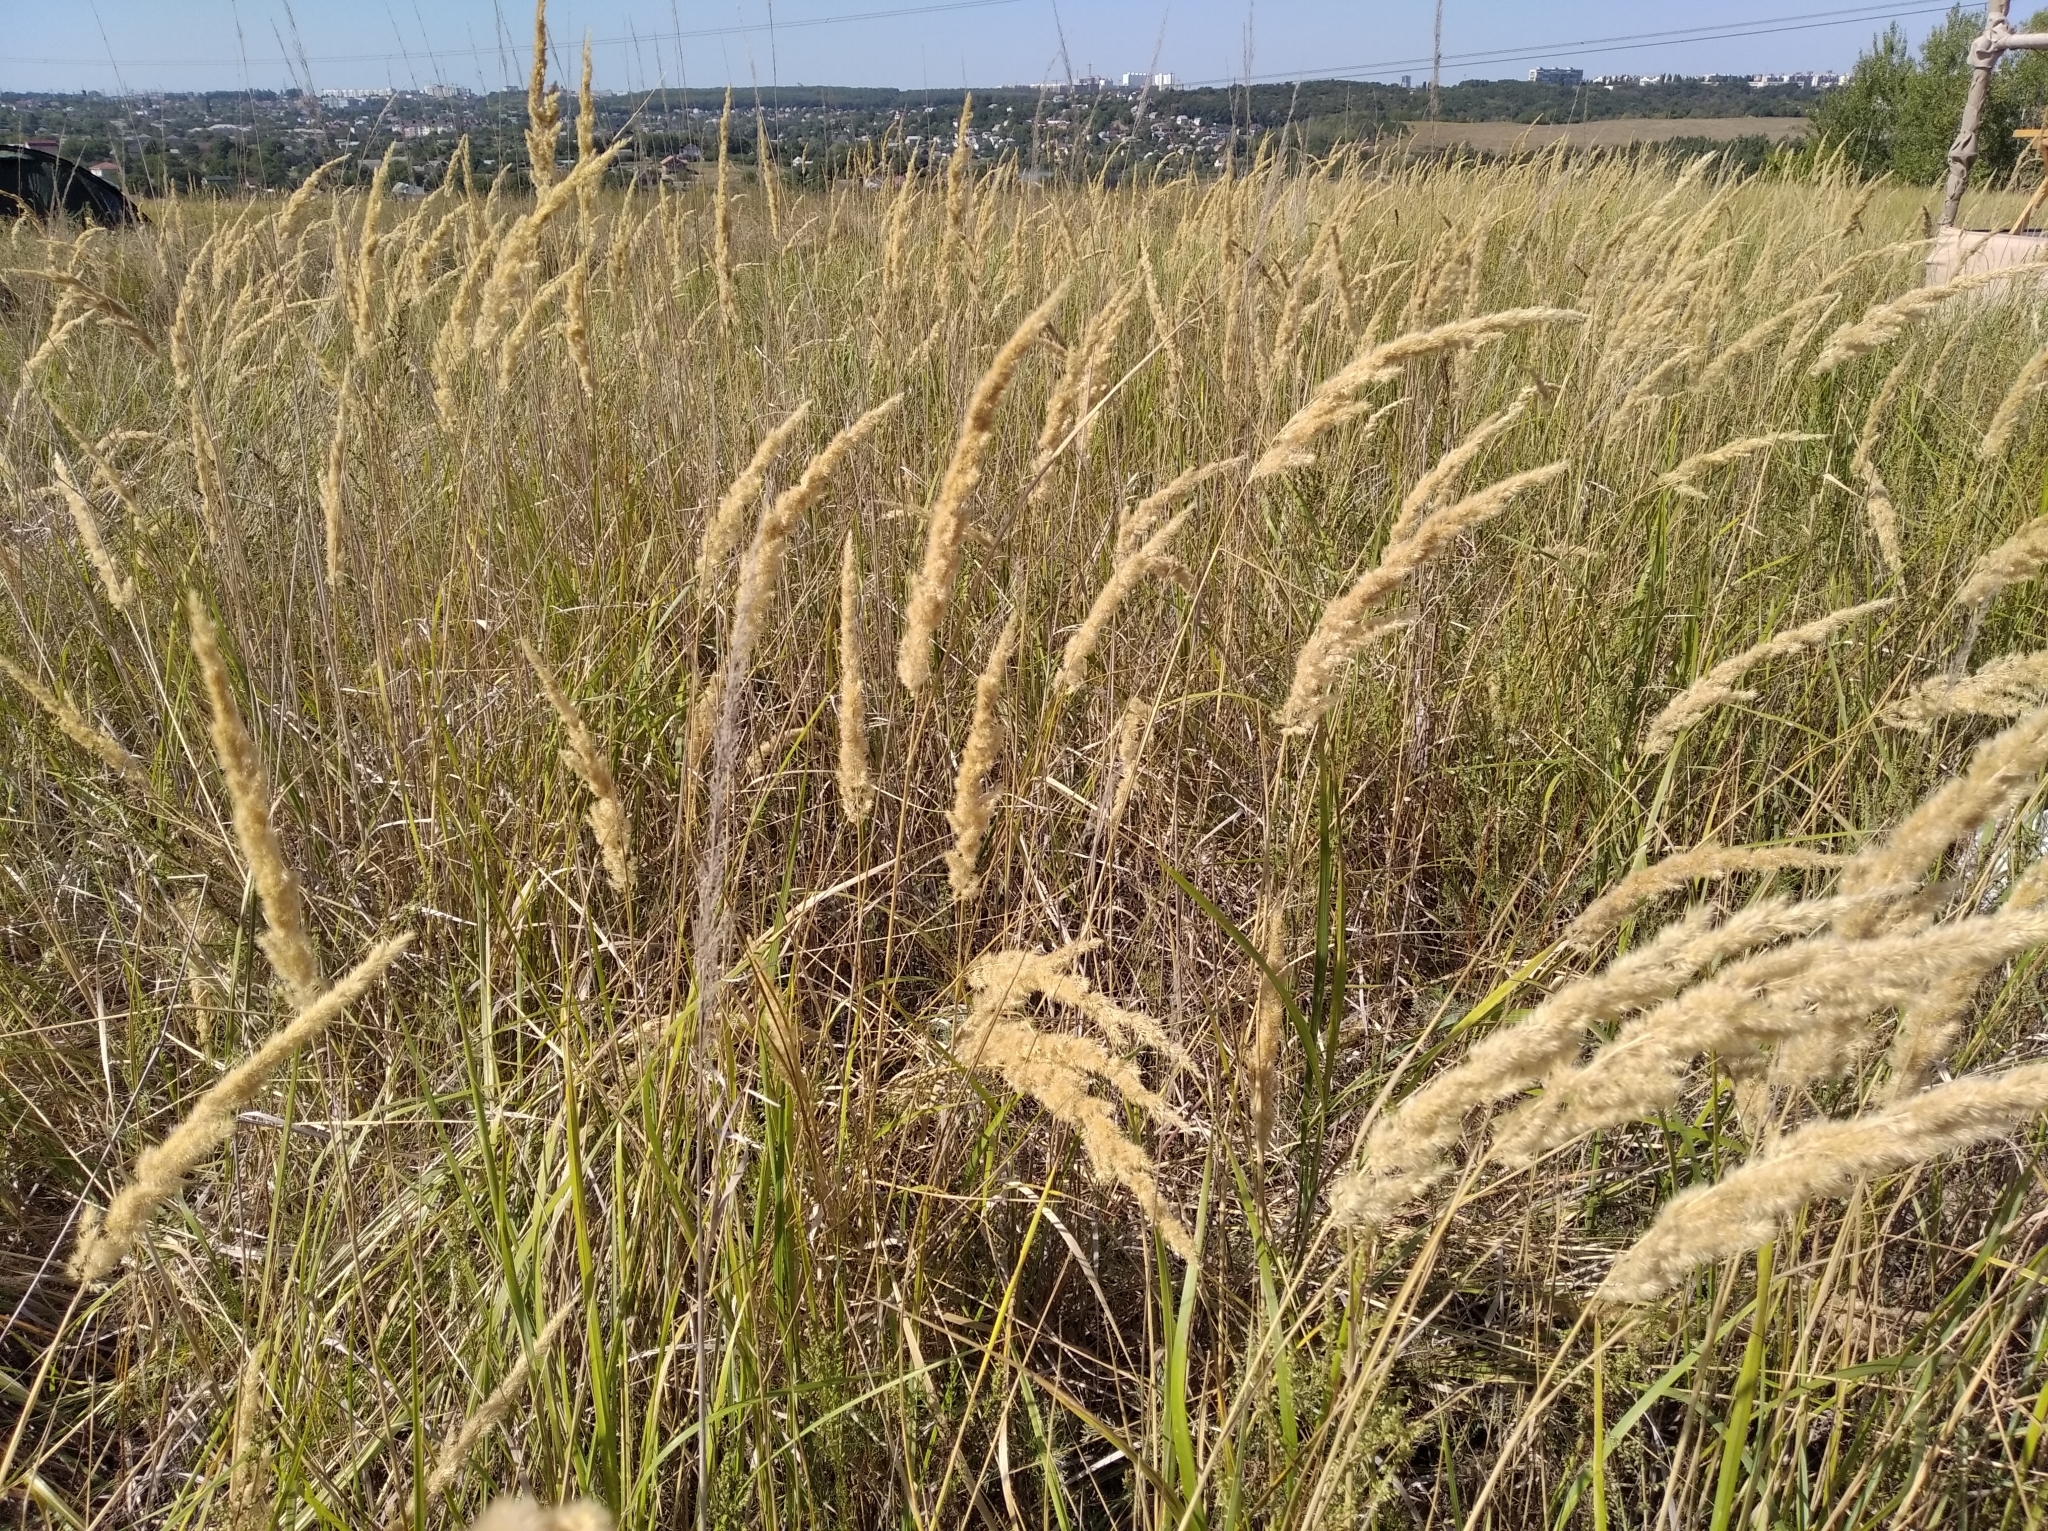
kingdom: Plantae
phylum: Tracheophyta
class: Liliopsida
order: Poales
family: Poaceae
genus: Calamagrostis
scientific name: Calamagrostis epigejos
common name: Wood small-reed
